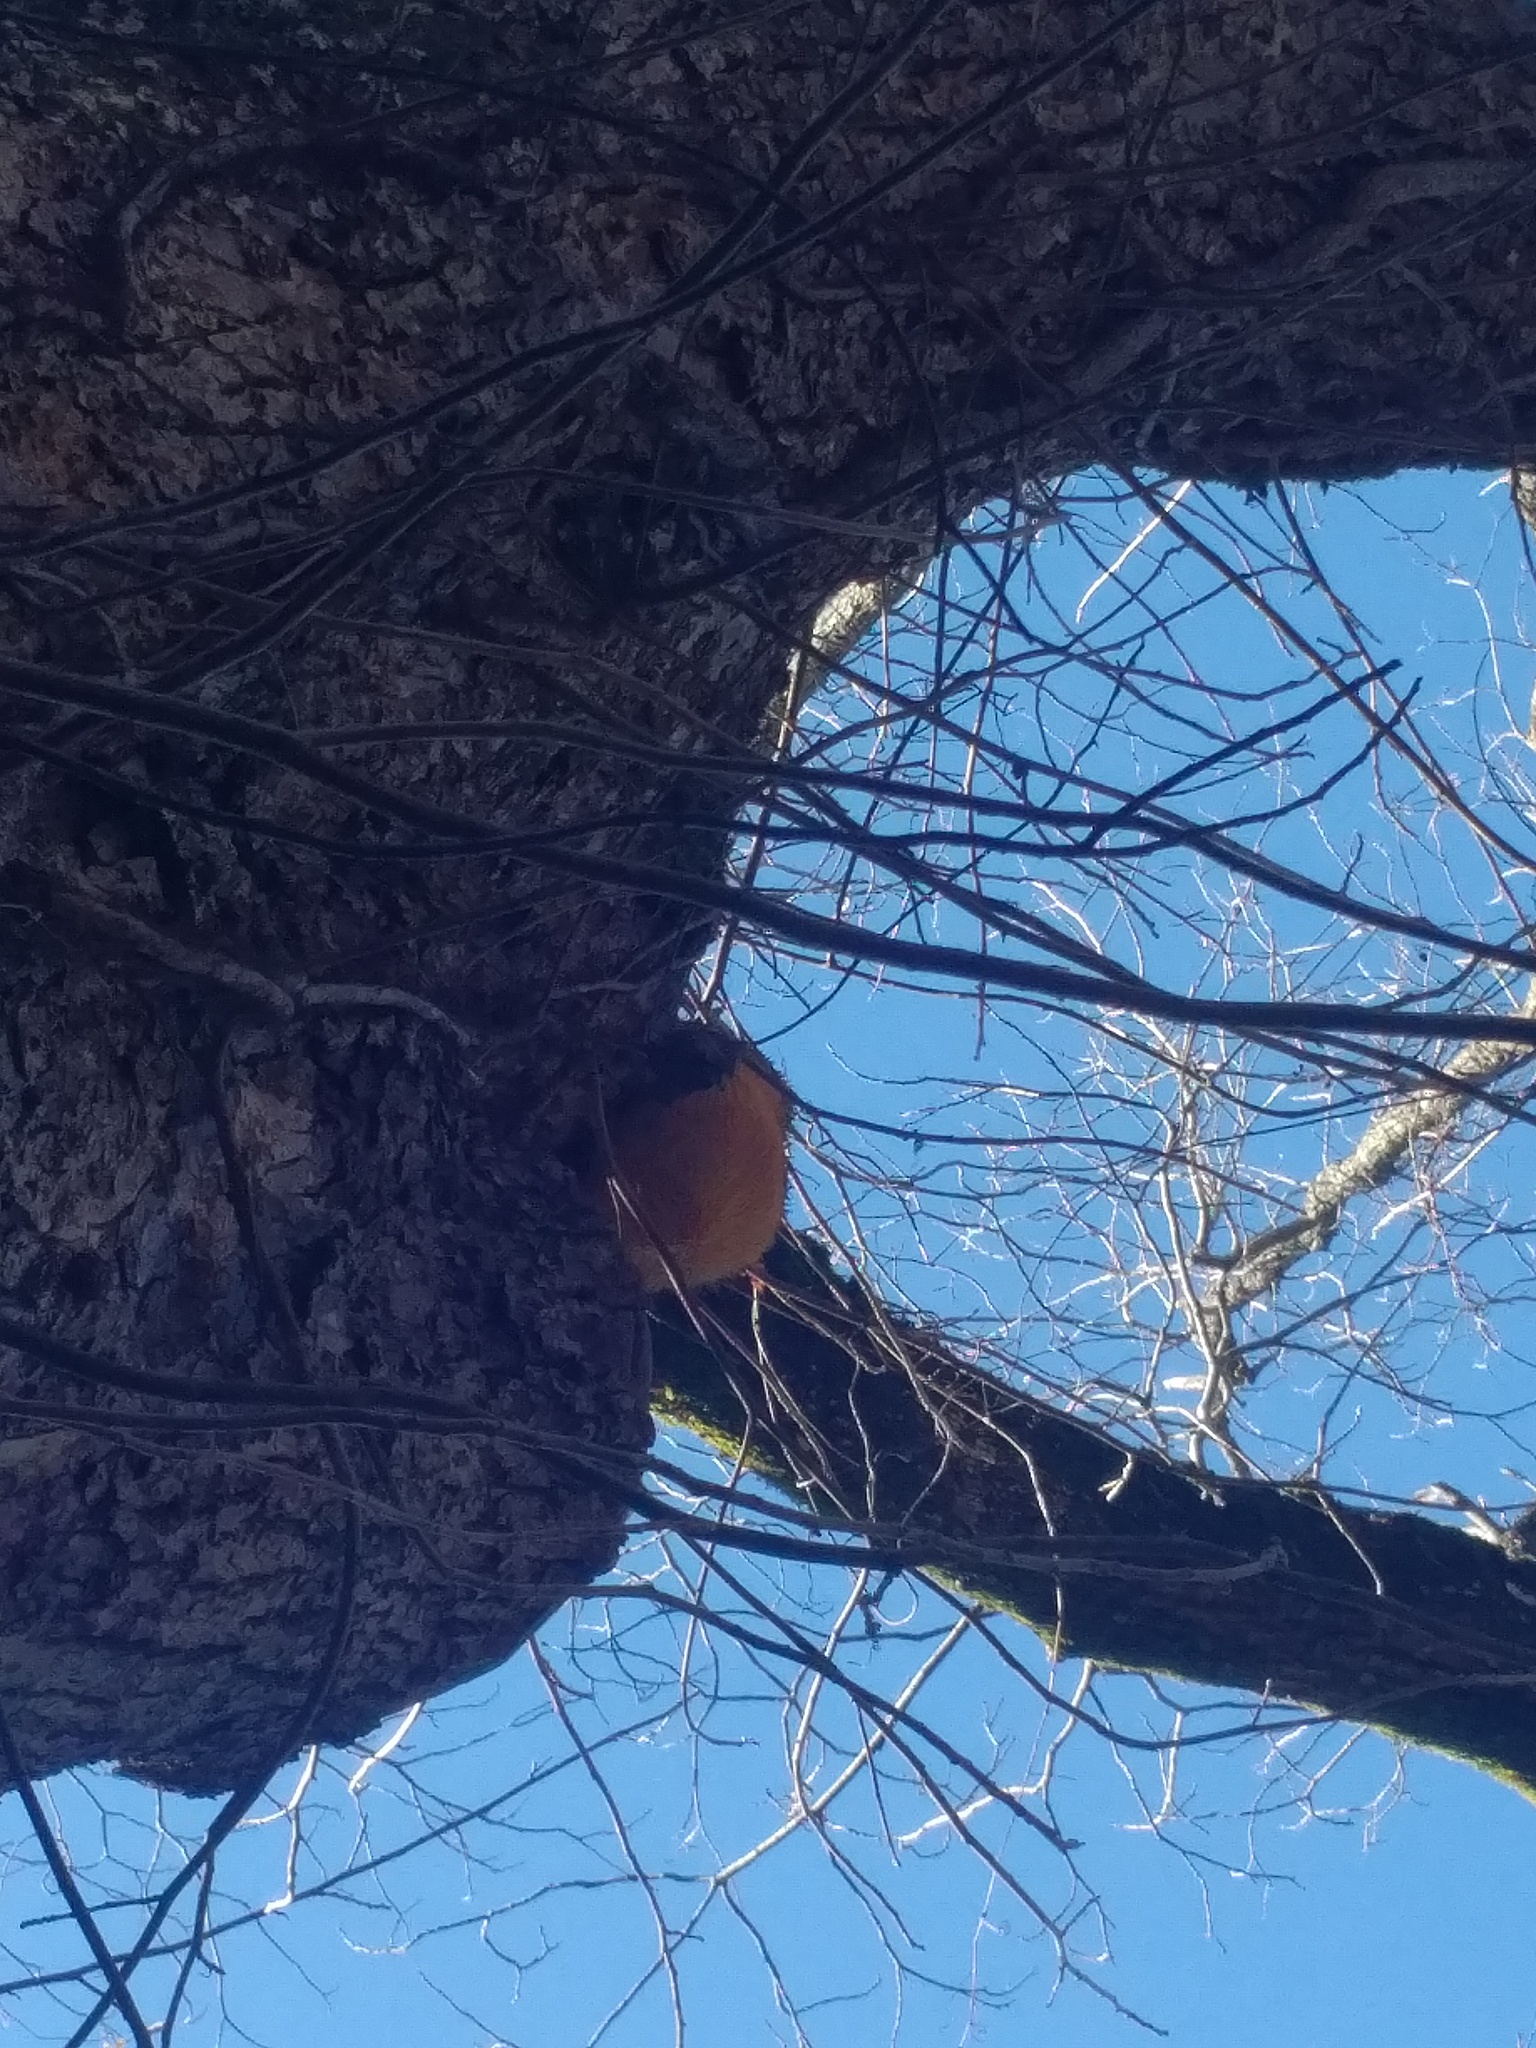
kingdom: Fungi
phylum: Basidiomycota
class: Agaricomycetes
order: Russulales
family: Hericiaceae
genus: Hericium
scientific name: Hericium erinaceus
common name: Bearded tooth
